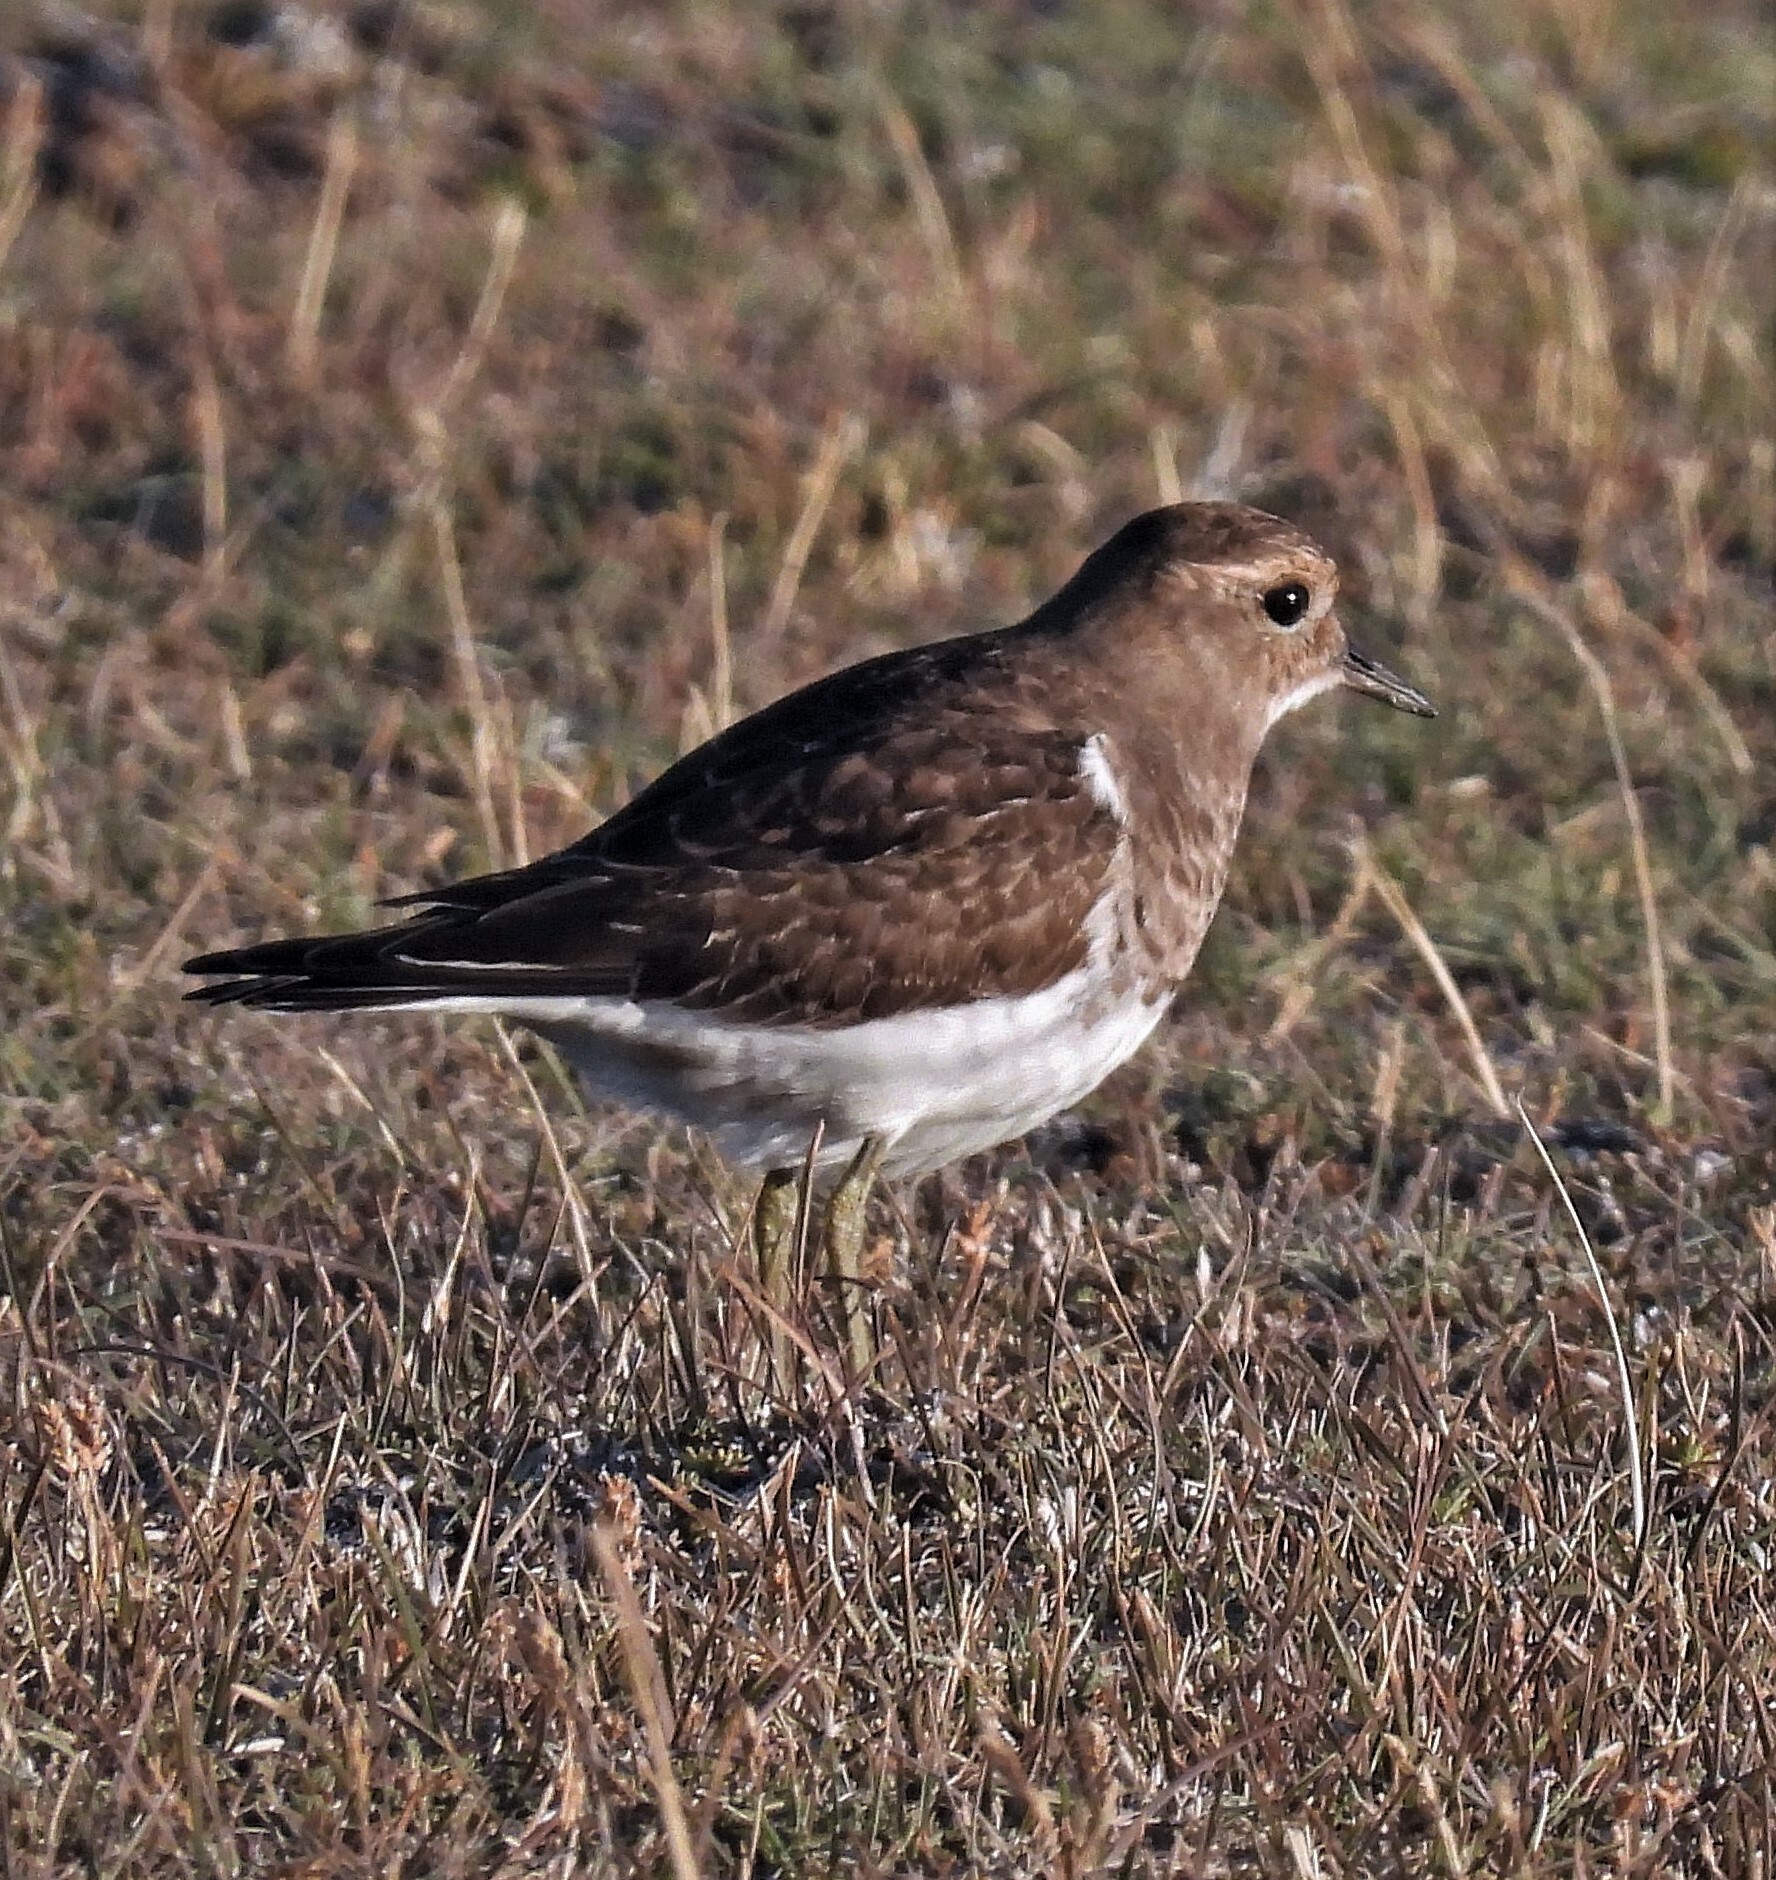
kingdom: Animalia
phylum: Chordata
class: Aves
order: Charadriiformes
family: Charadriidae
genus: Charadrius
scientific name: Charadrius modestus
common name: Rufous-chested plover
